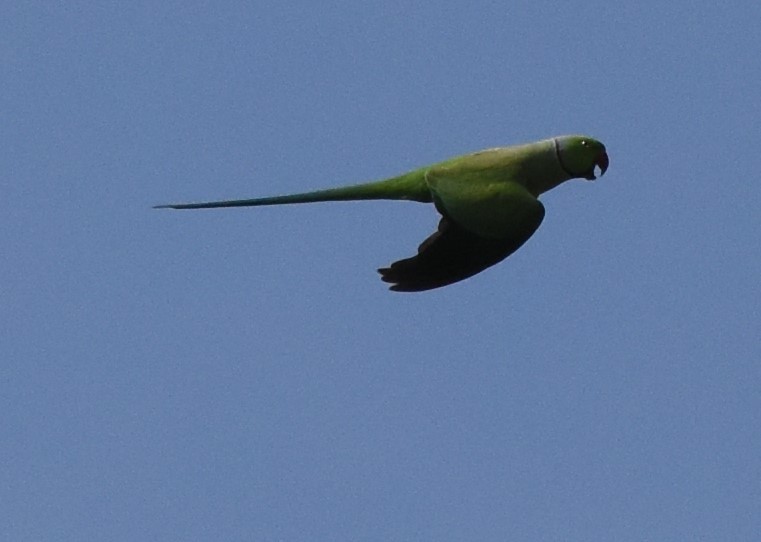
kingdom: Animalia
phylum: Chordata
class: Aves
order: Psittaciformes
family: Psittacidae
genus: Psittacula
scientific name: Psittacula krameri
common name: Rose-ringed parakeet
